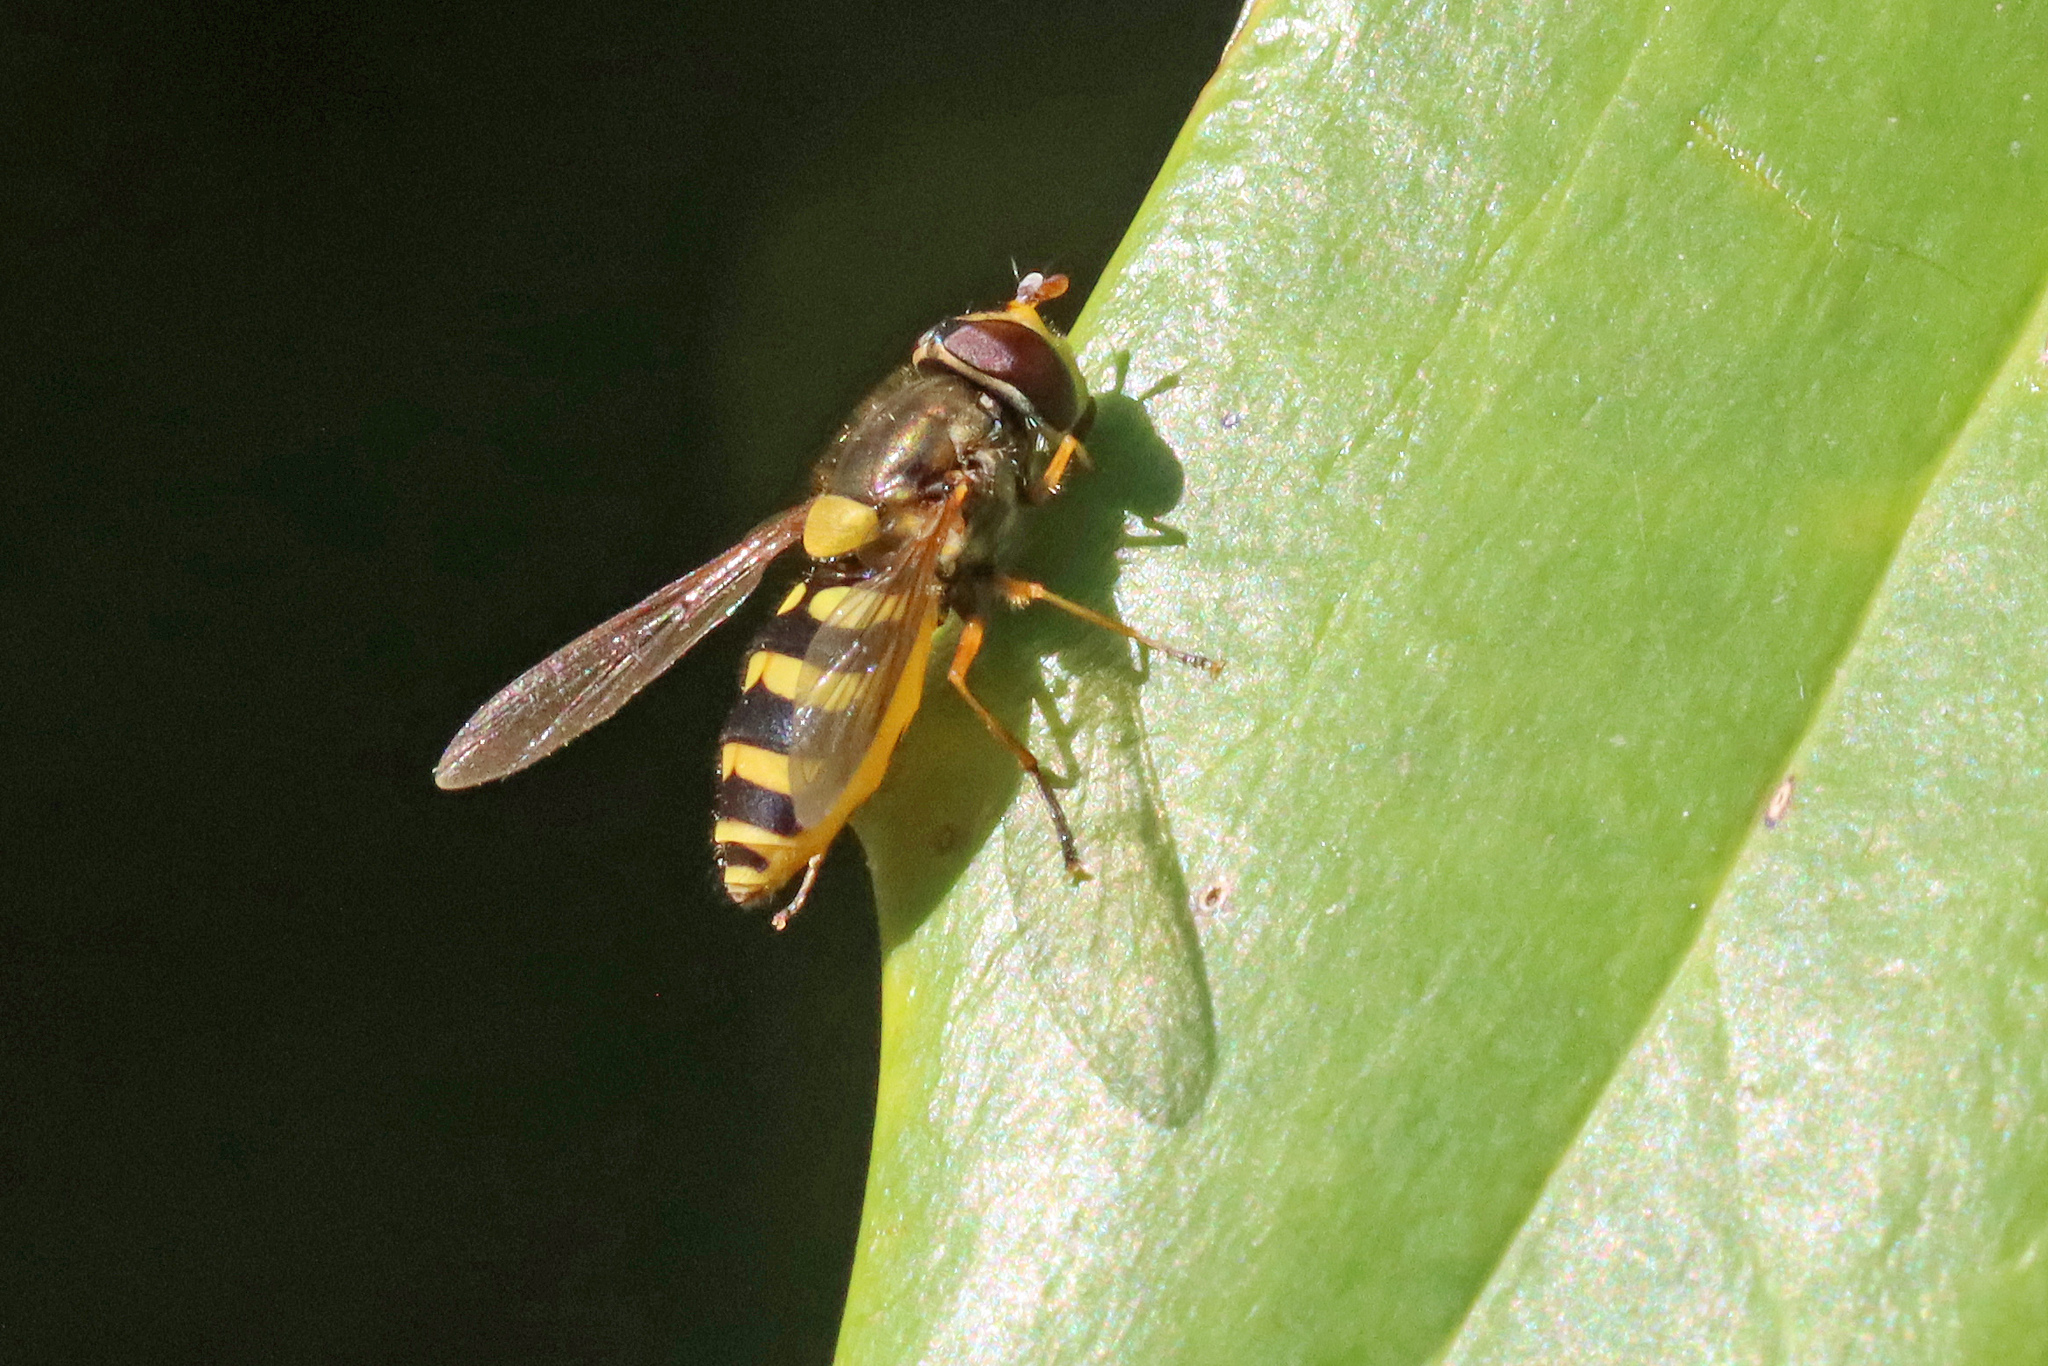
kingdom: Animalia
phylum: Arthropoda
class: Insecta
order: Diptera
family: Syrphidae
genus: Syrphus
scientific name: Syrphus ribesii
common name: Common flower fly
